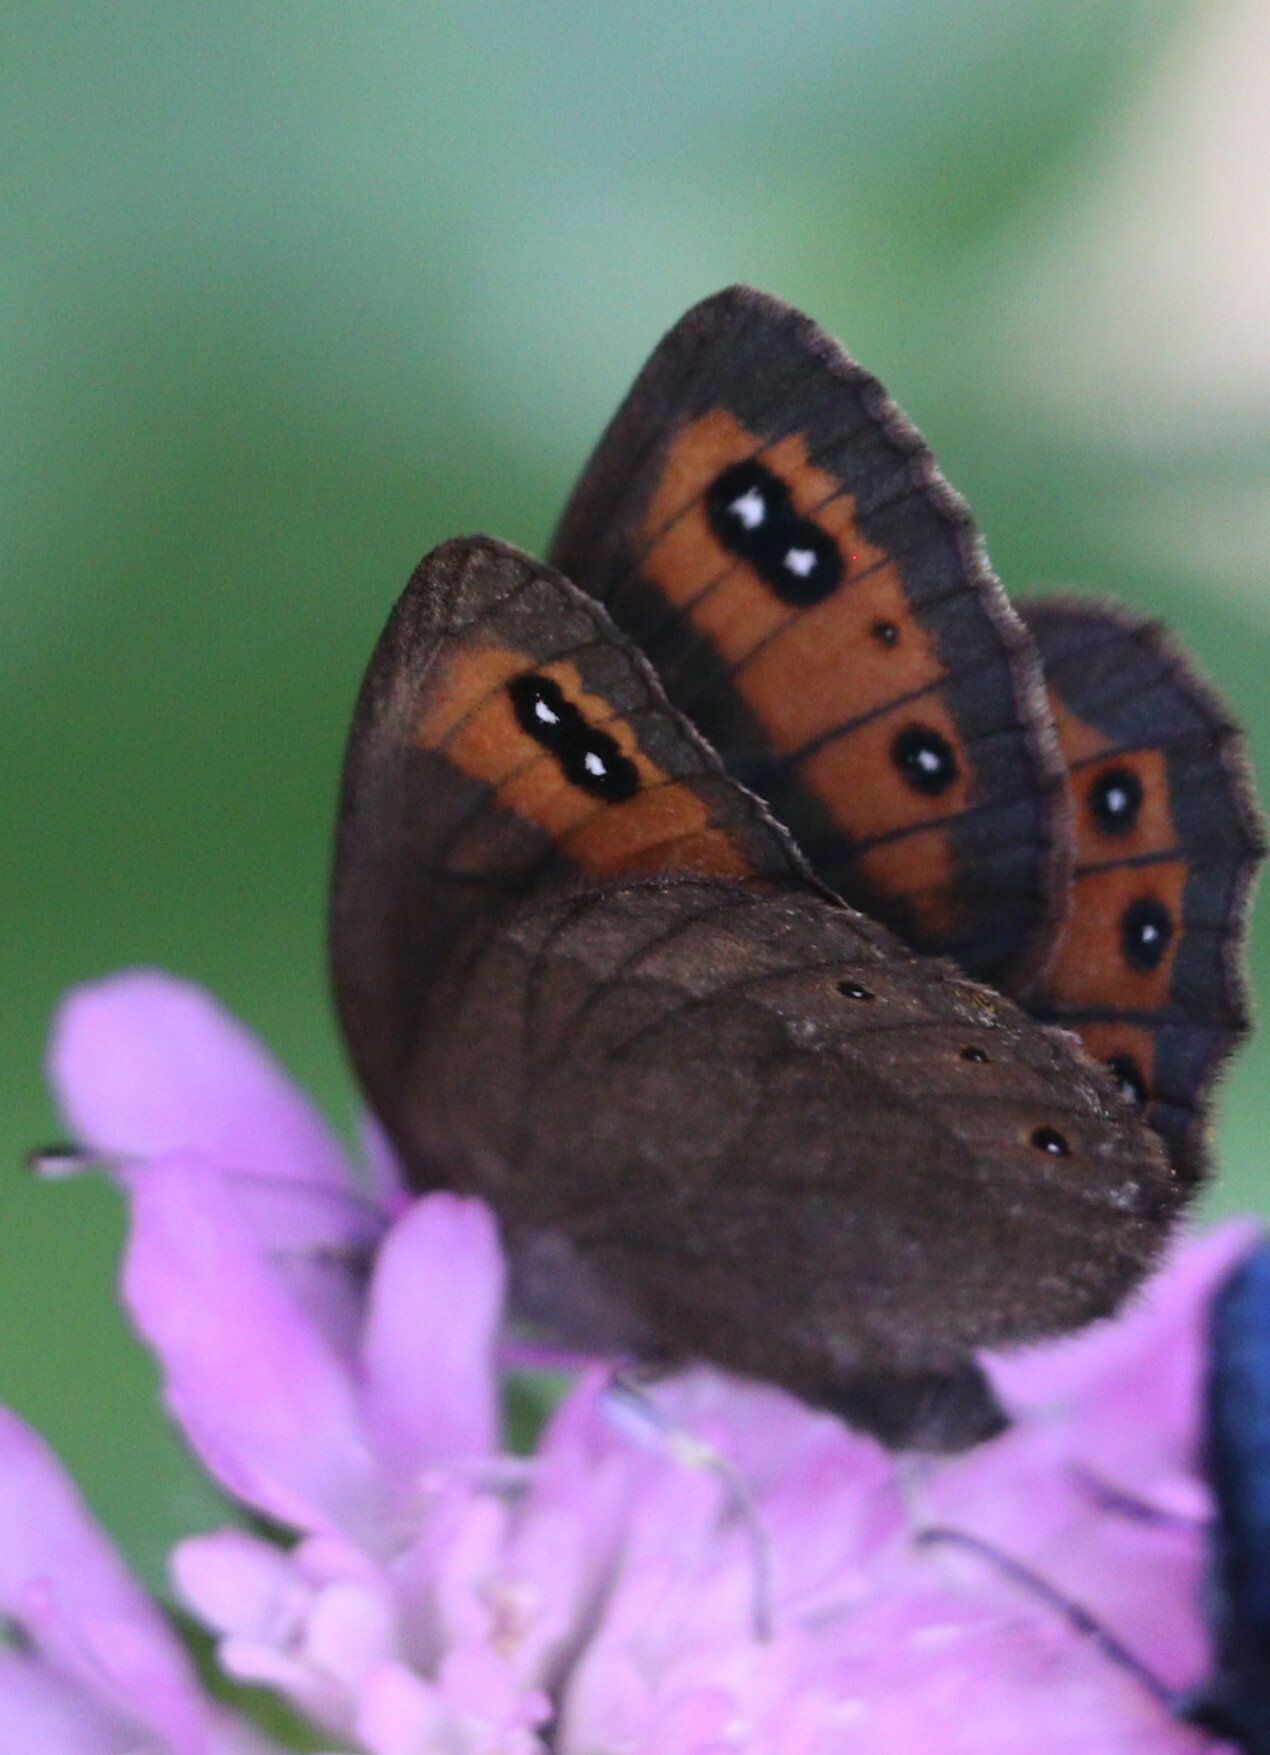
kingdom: Animalia
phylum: Arthropoda
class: Insecta
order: Lepidoptera
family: Nymphalidae
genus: Erebia
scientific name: Erebia meolans
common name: Piedmont ringlet
